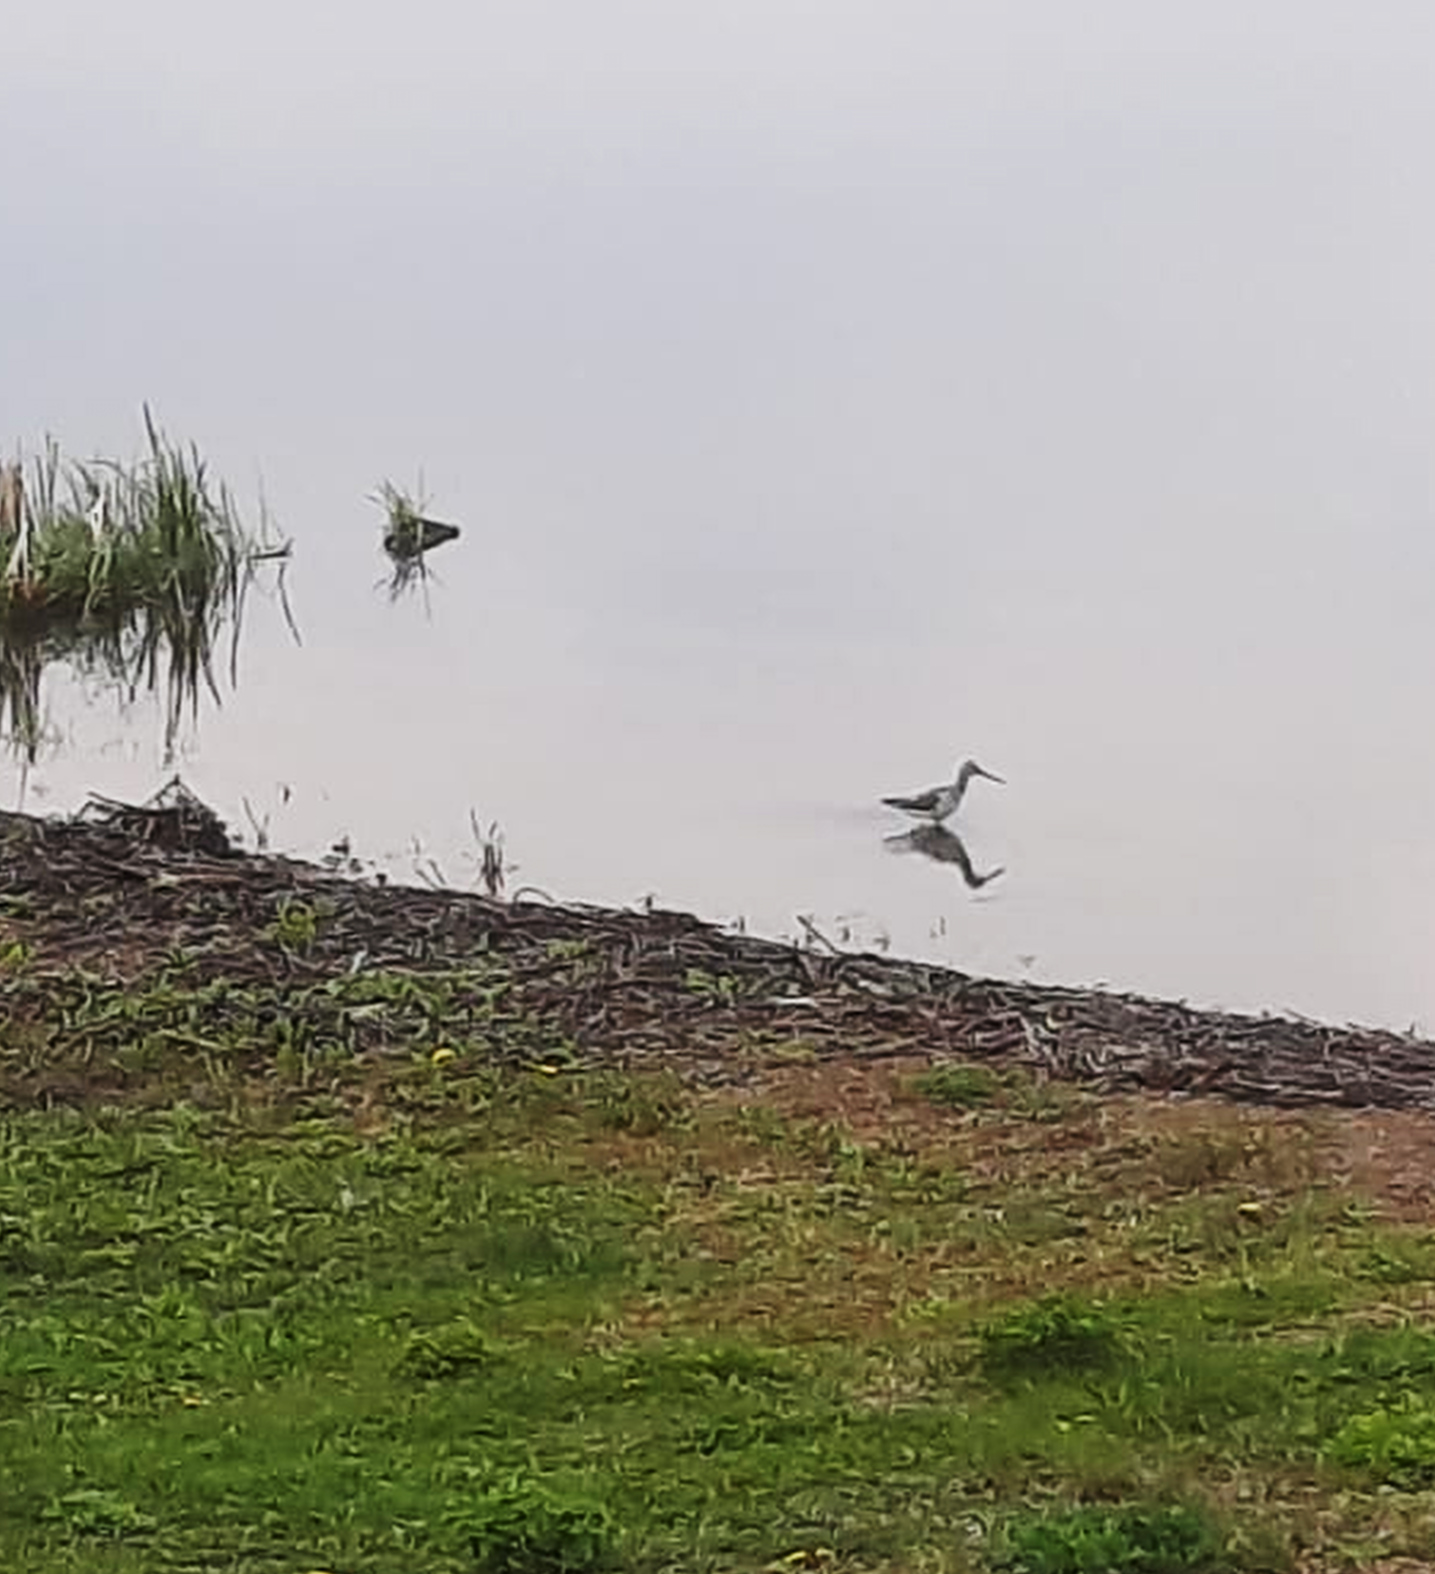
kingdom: Animalia
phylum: Chordata
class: Aves
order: Charadriiformes
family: Scolopacidae
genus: Tringa
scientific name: Tringa nebularia
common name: Common greenshank
